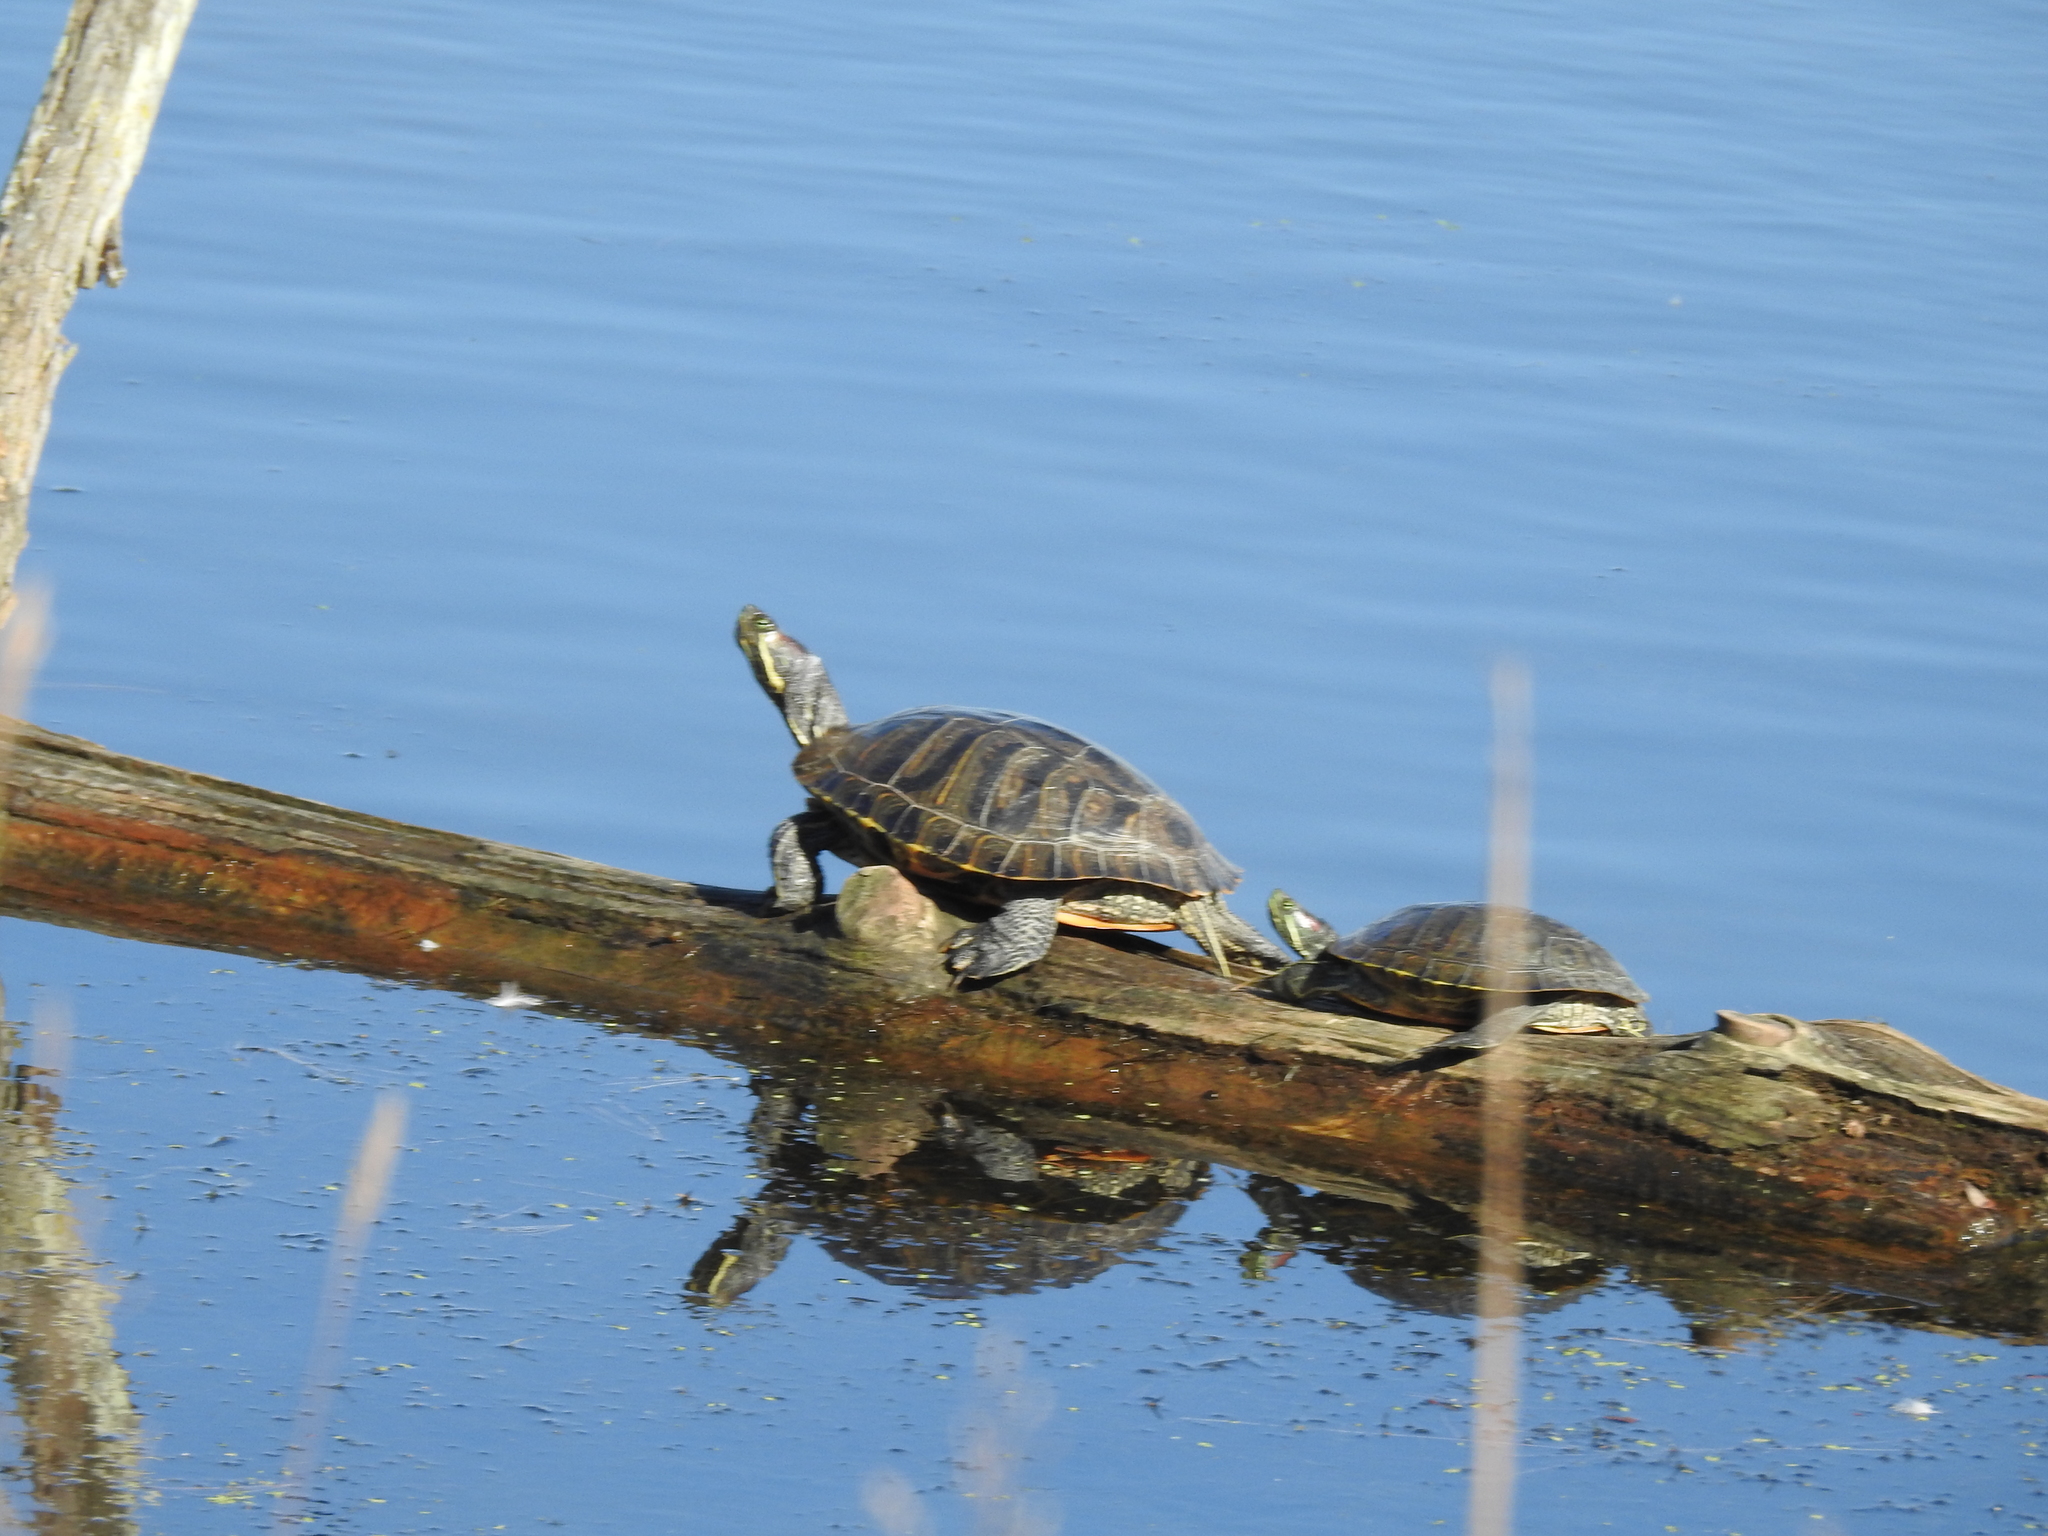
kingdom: Animalia
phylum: Chordata
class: Testudines
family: Emydidae
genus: Trachemys
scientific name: Trachemys scripta
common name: Slider
